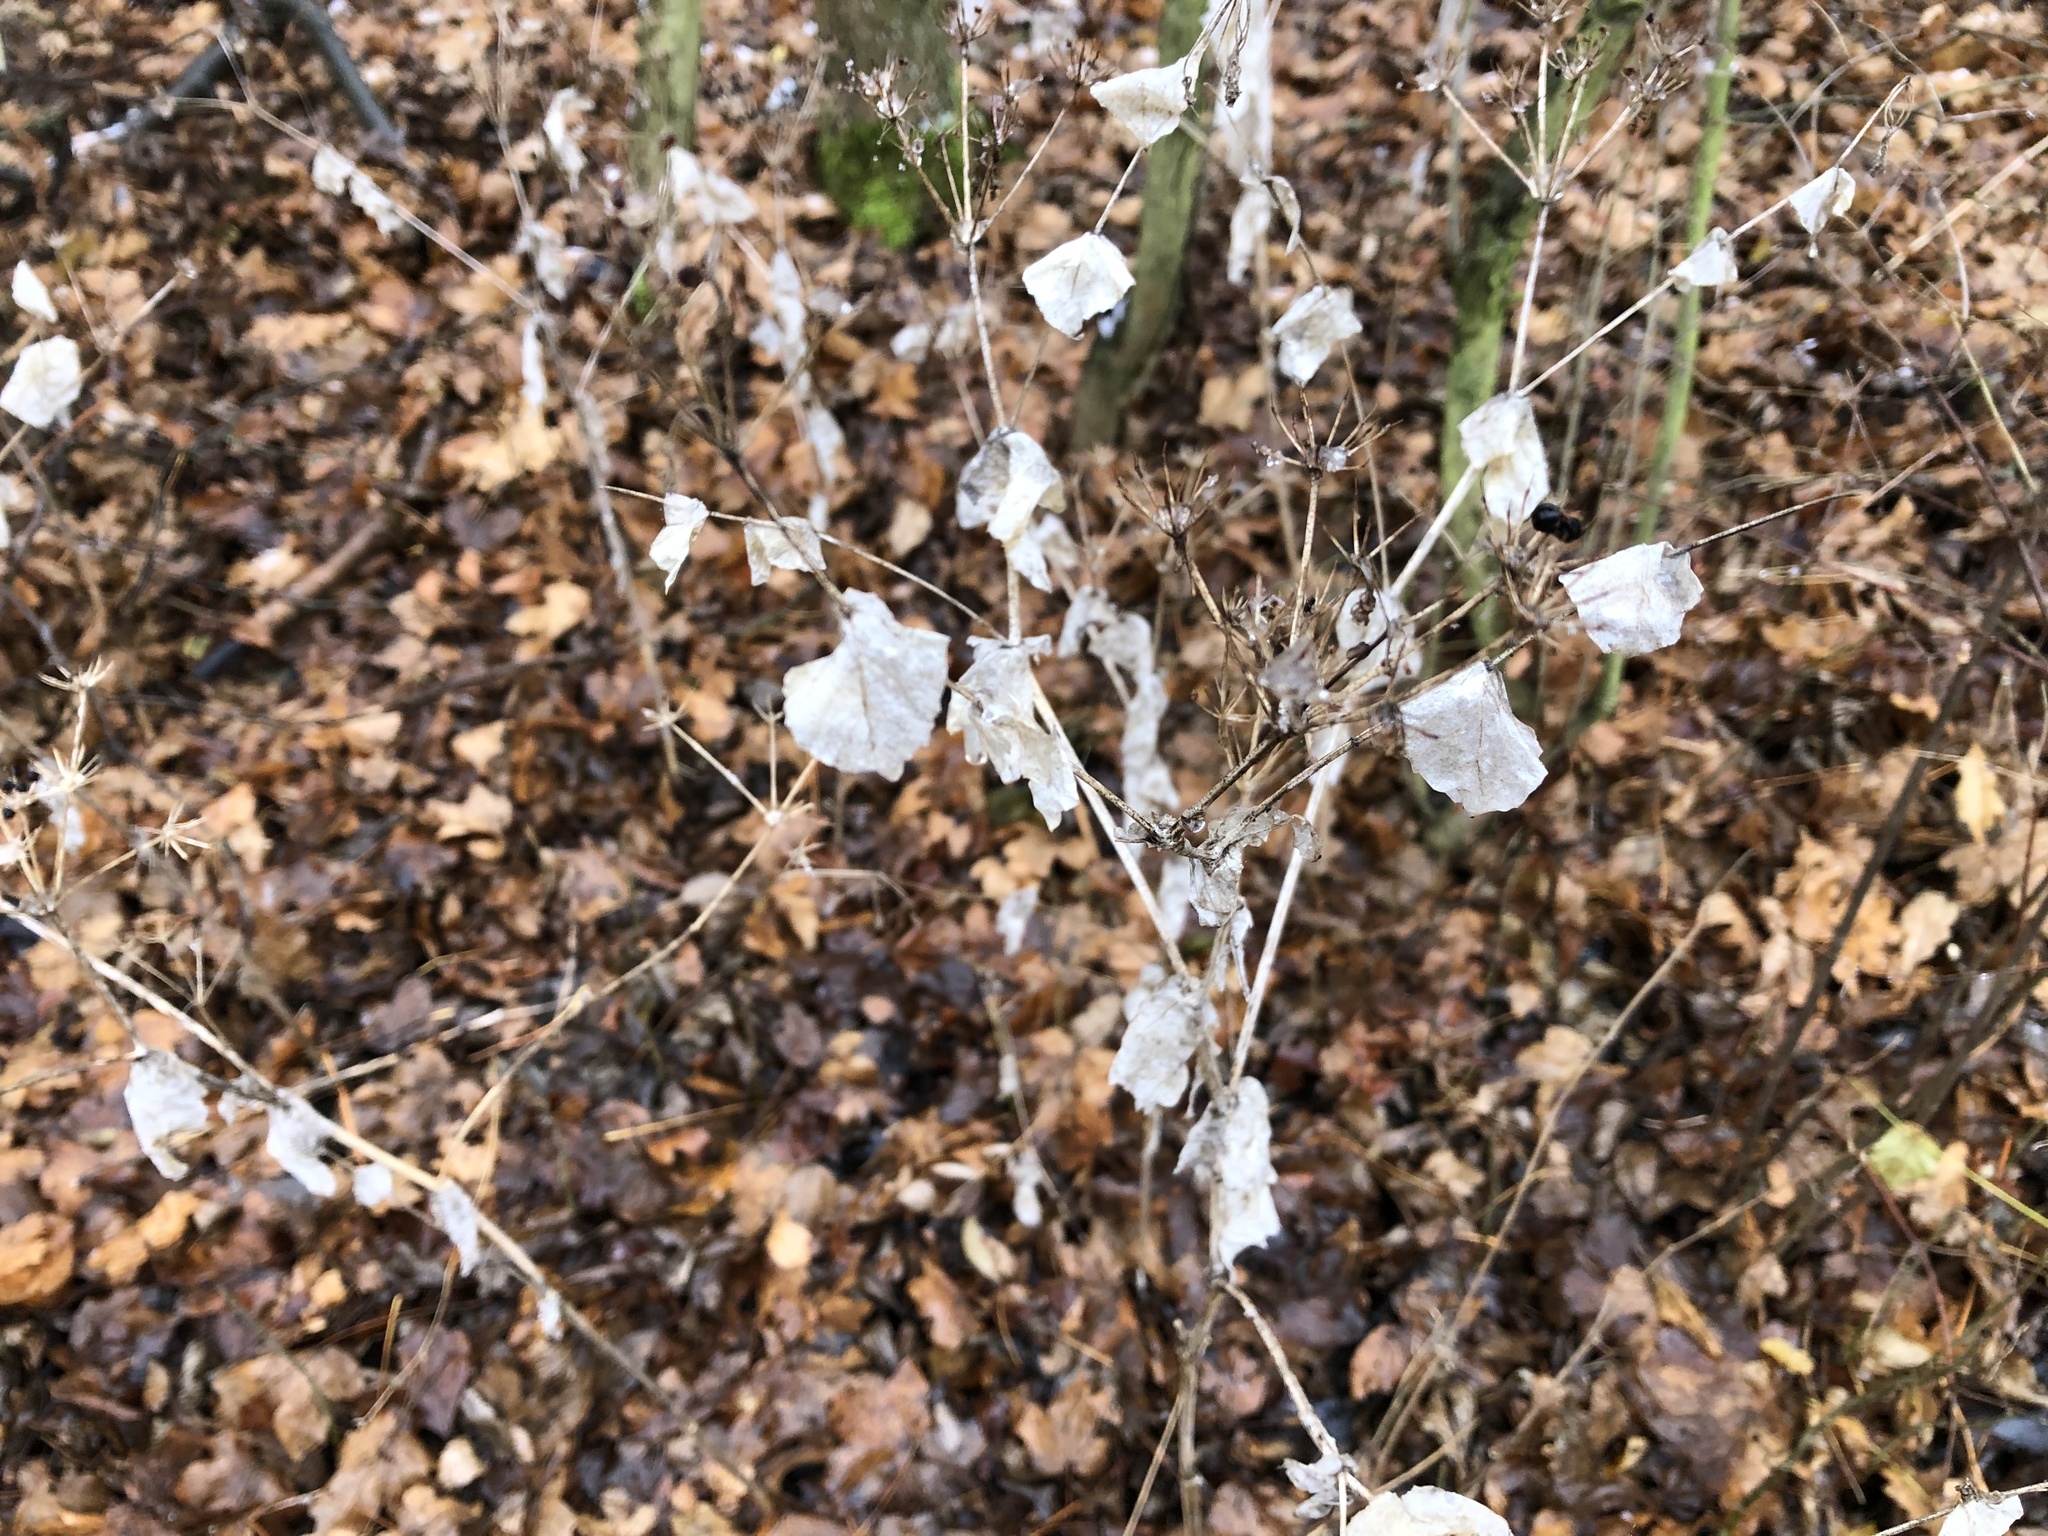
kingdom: Plantae
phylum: Tracheophyta
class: Magnoliopsida
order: Apiales
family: Apiaceae
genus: Smyrnium
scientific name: Smyrnium perfoliatum
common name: Perfoliate alexanders
